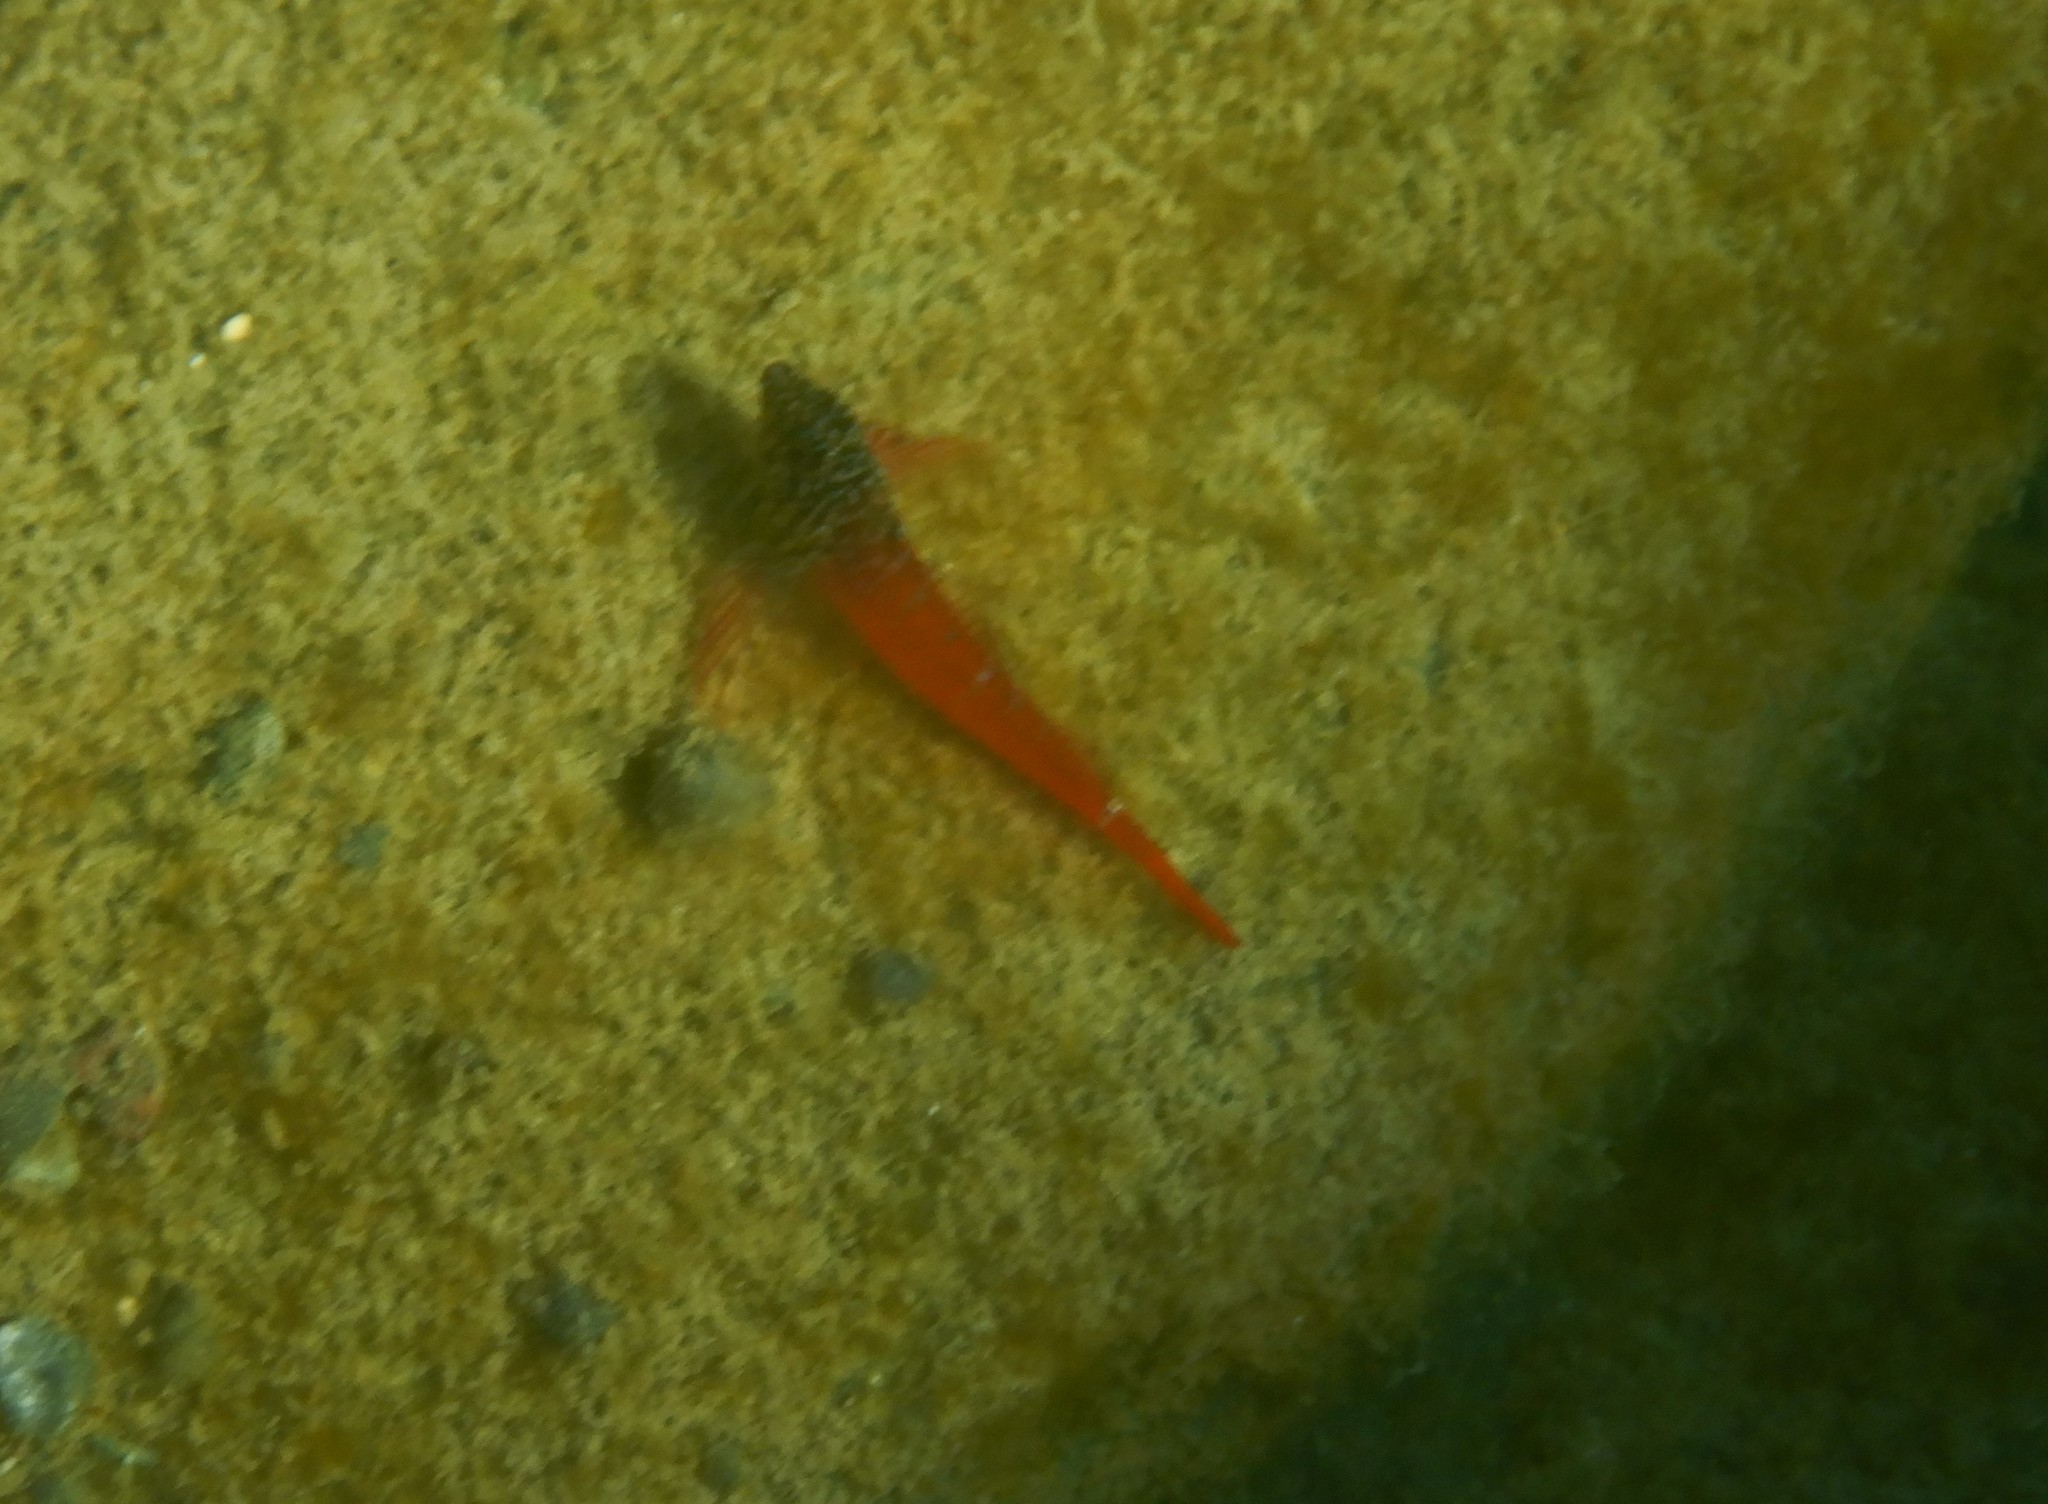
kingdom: Animalia
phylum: Chordata
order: Perciformes
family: Tripterygiidae
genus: Tripterygion
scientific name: Tripterygion melanurum
